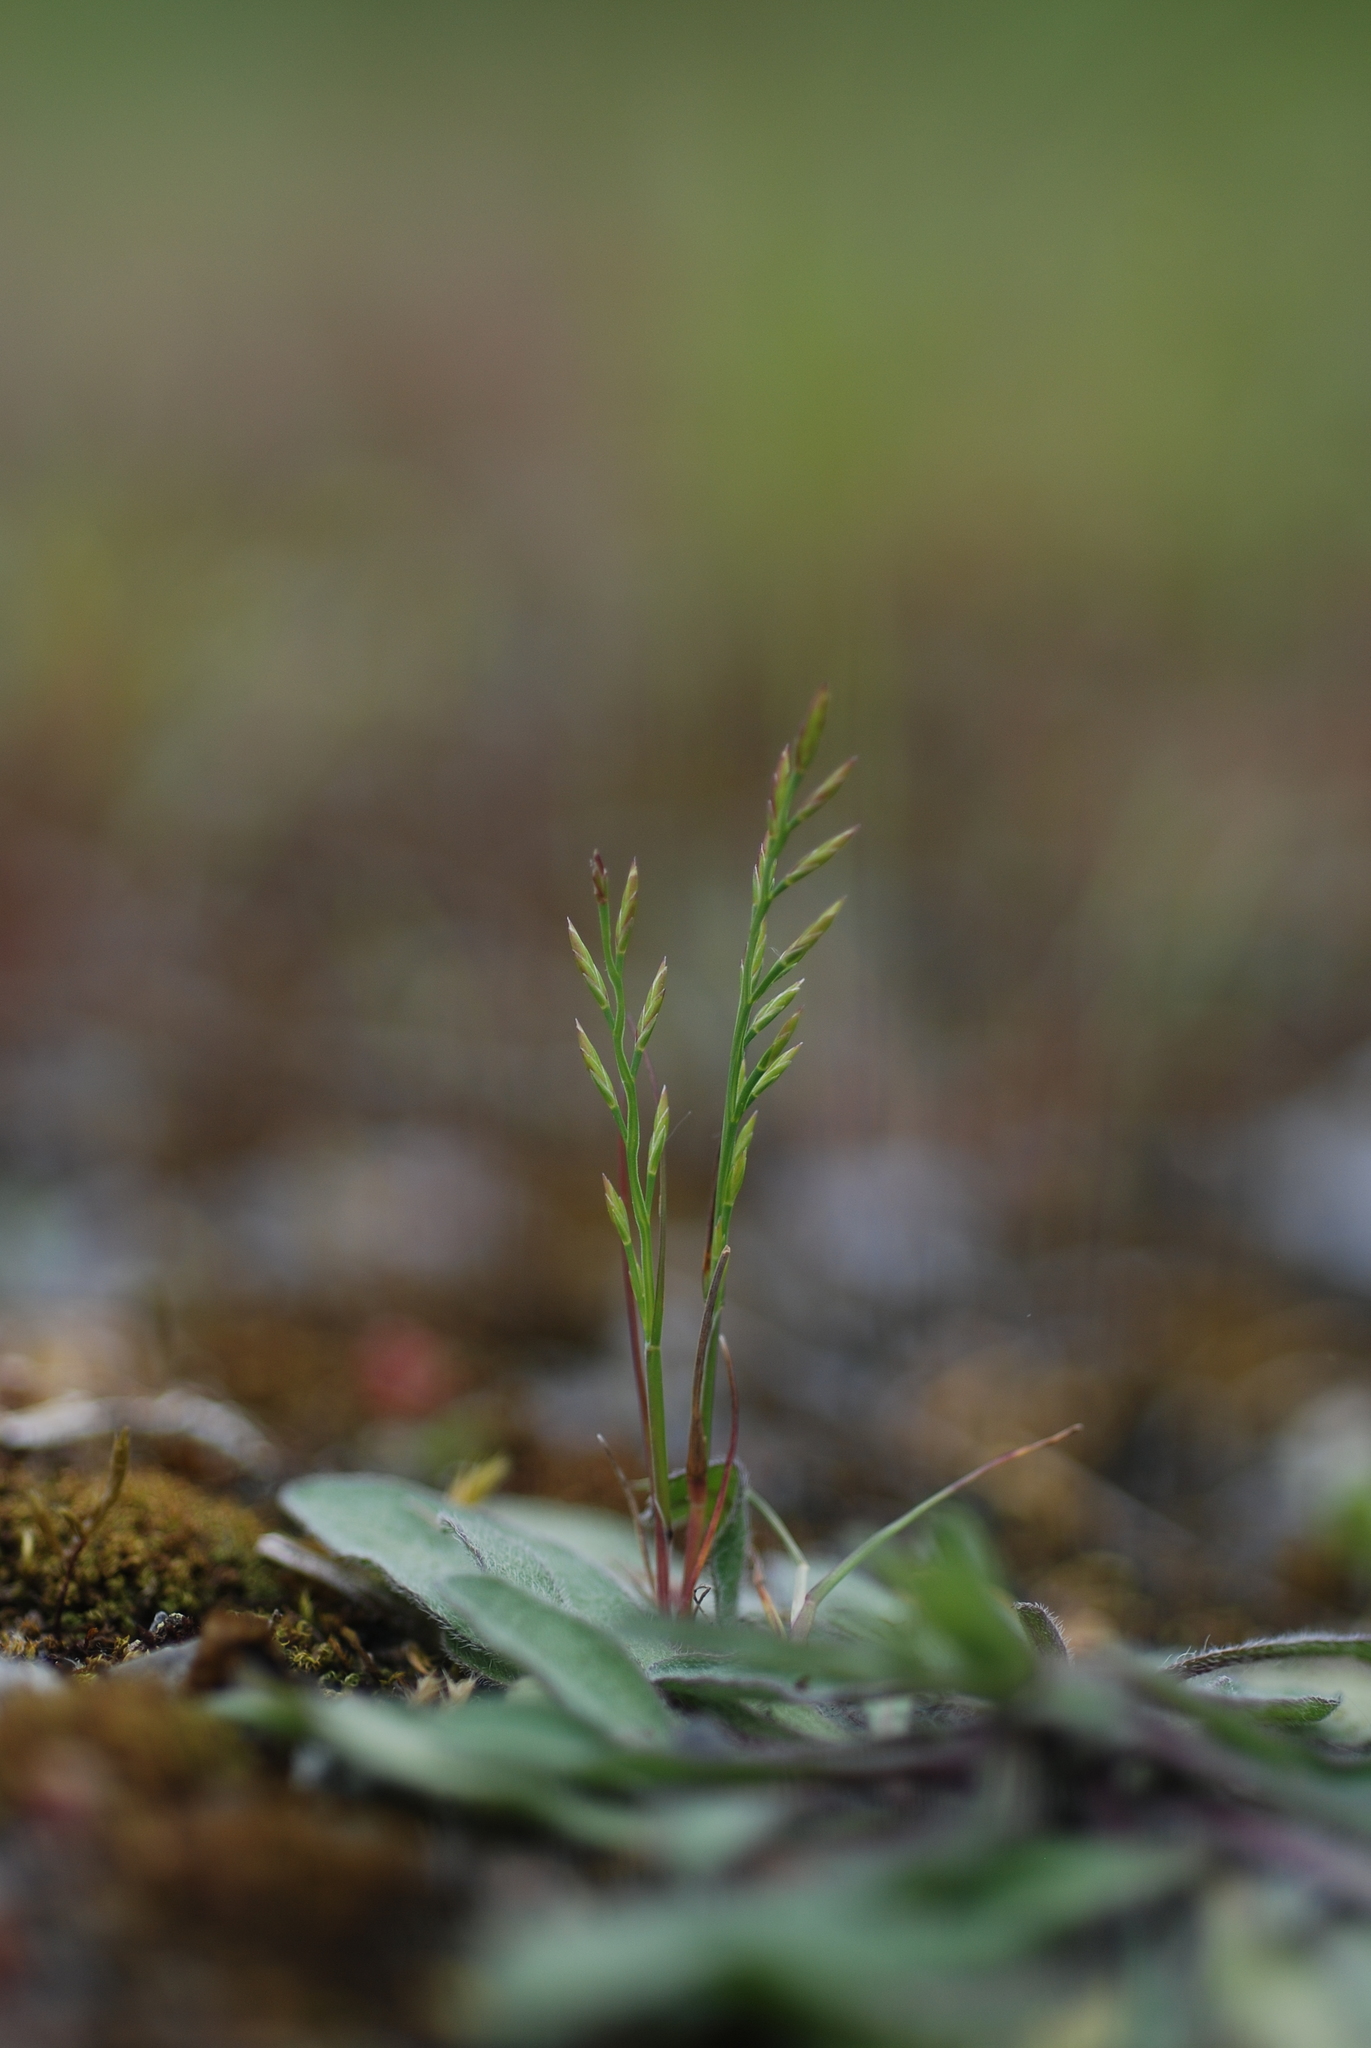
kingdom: Plantae
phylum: Tracheophyta
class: Liliopsida
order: Poales
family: Poaceae
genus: Catapodium
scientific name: Catapodium rigidum
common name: Fern-grass
